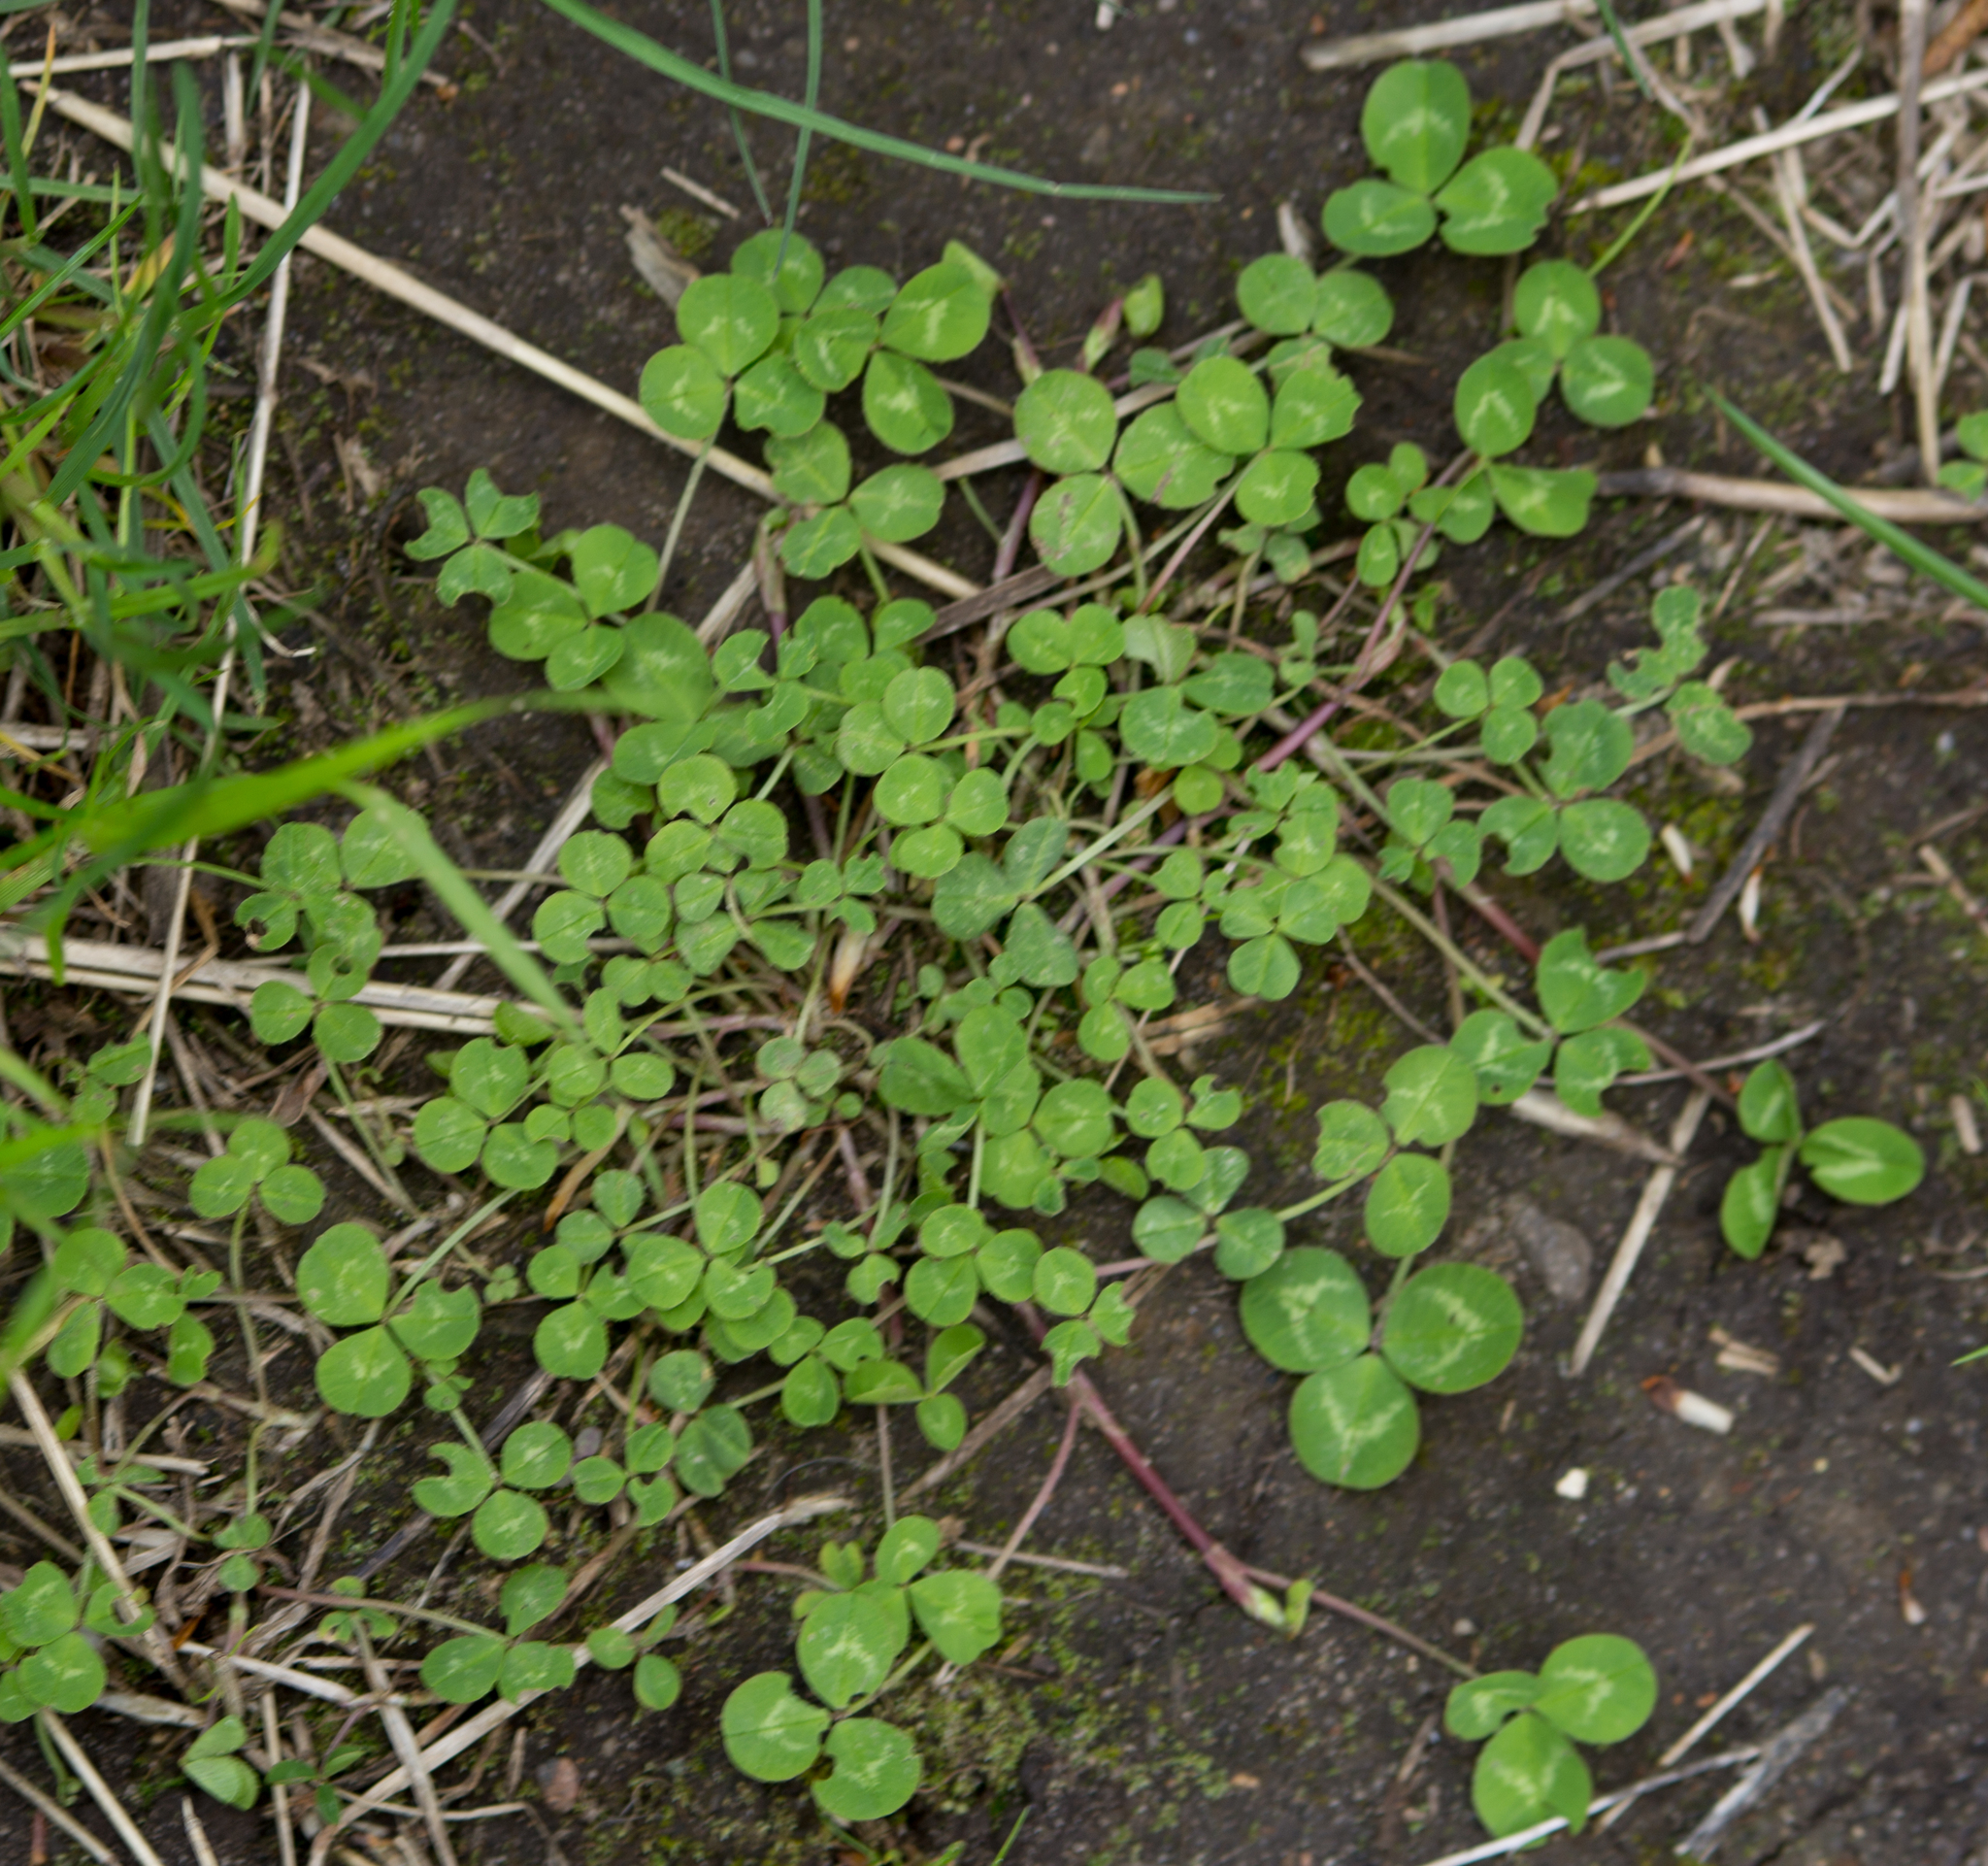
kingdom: Plantae
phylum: Tracheophyta
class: Magnoliopsida
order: Fabales
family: Fabaceae
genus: Trifolium
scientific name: Trifolium repens
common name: White clover
